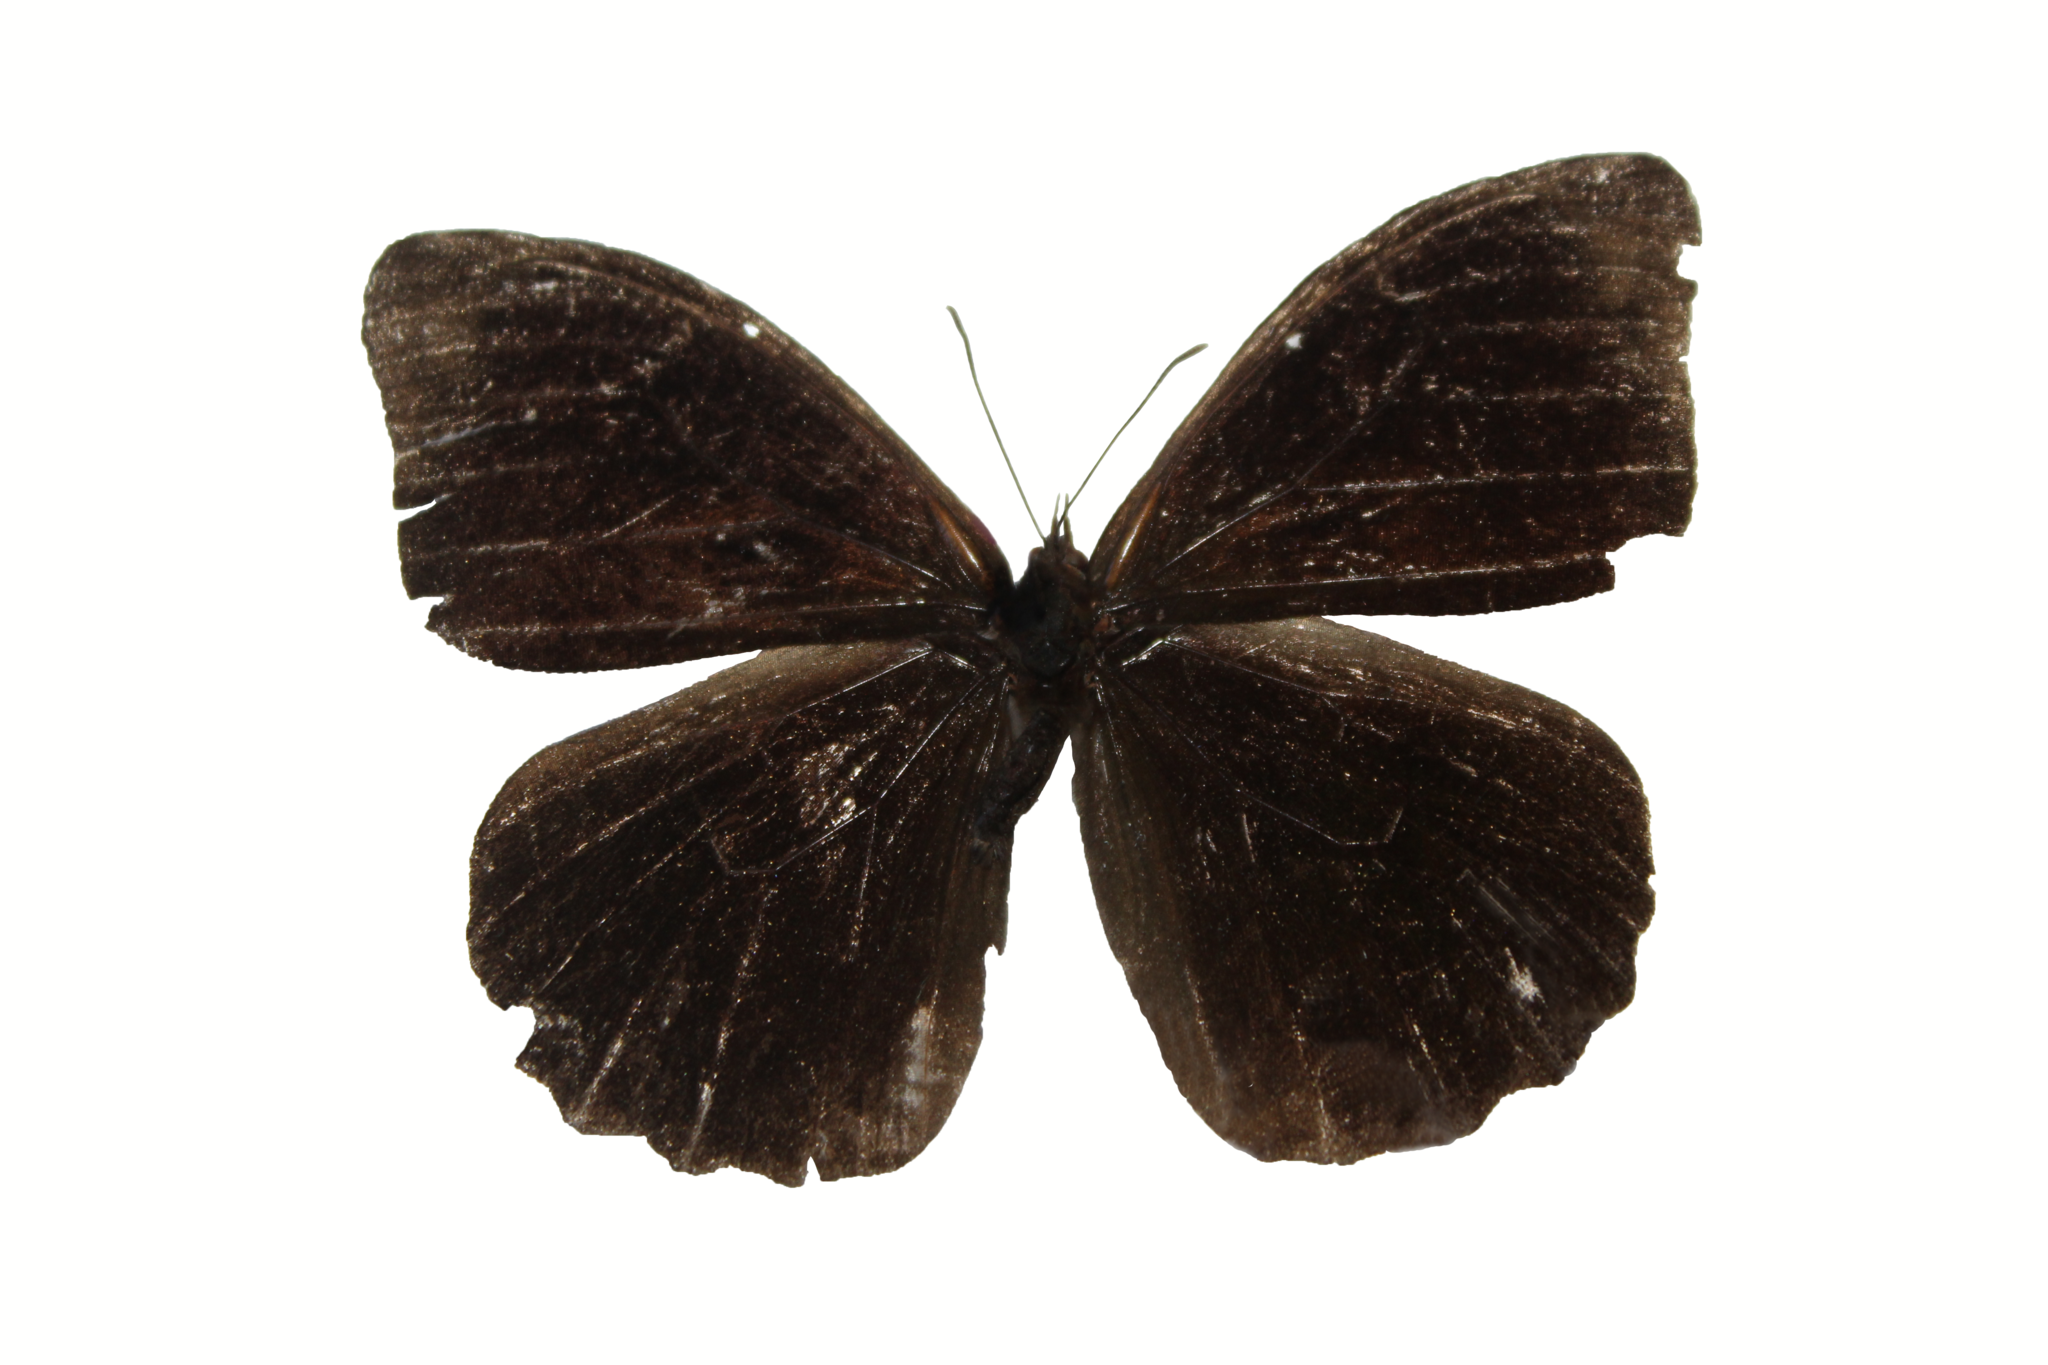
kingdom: Animalia
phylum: Arthropoda
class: Insecta
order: Lepidoptera
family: Nymphalidae
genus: Pronophila
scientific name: Pronophila epidipnis
